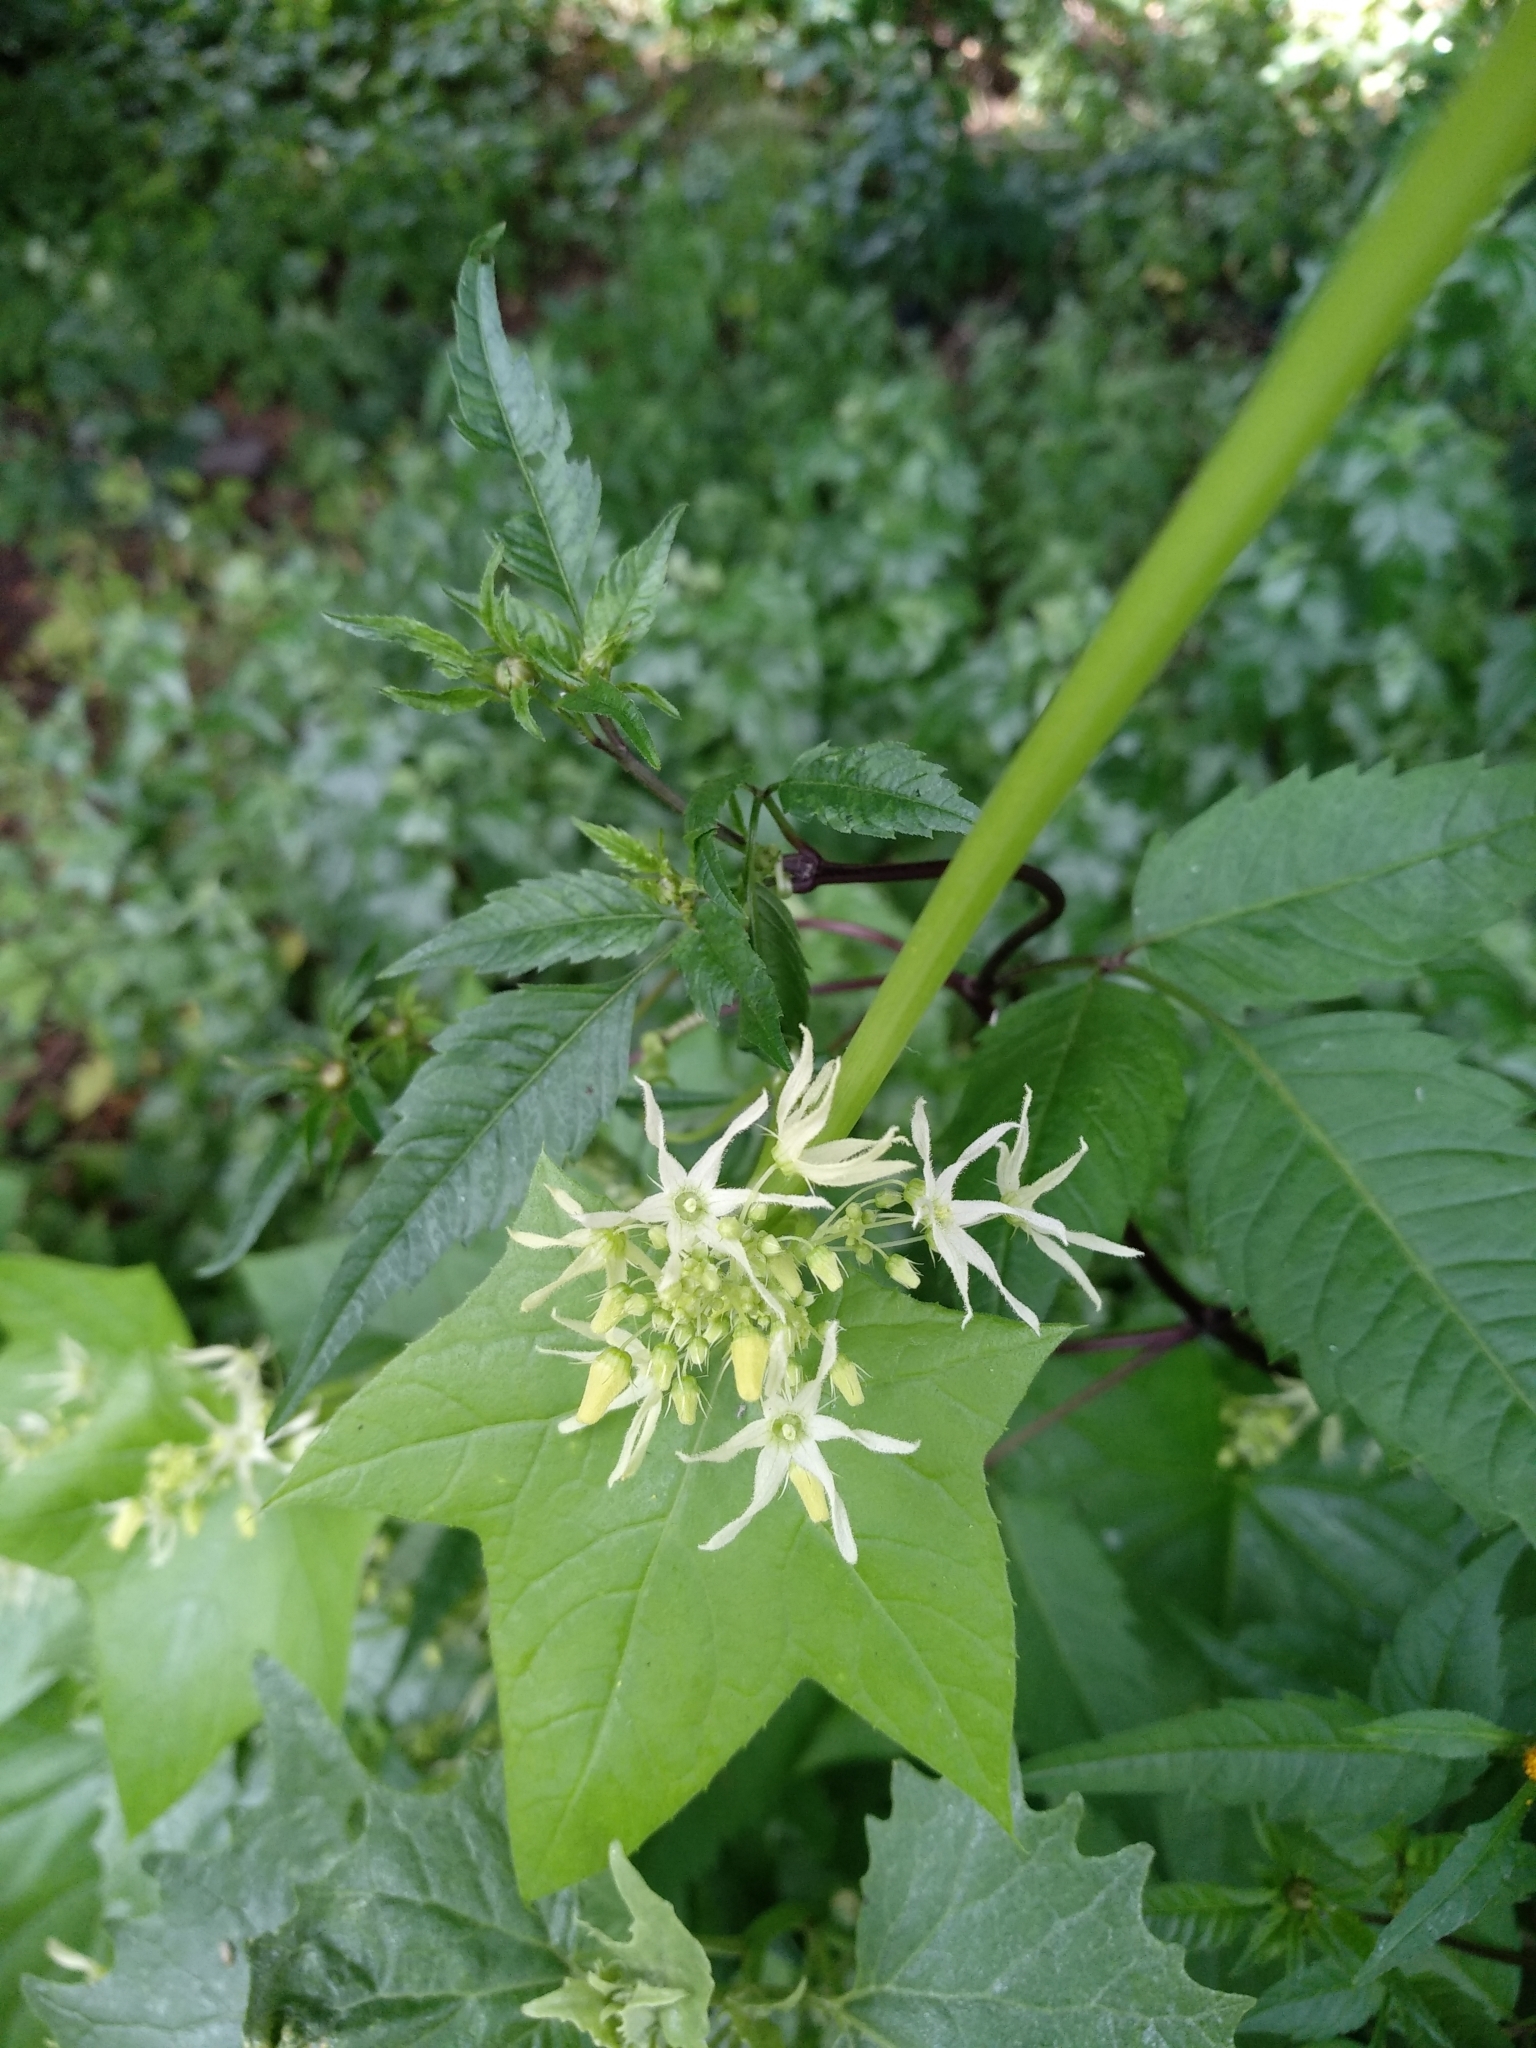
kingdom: Plantae
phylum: Tracheophyta
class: Magnoliopsida
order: Cucurbitales
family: Cucurbitaceae
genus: Echinocystis
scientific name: Echinocystis lobata
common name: Wild cucumber
